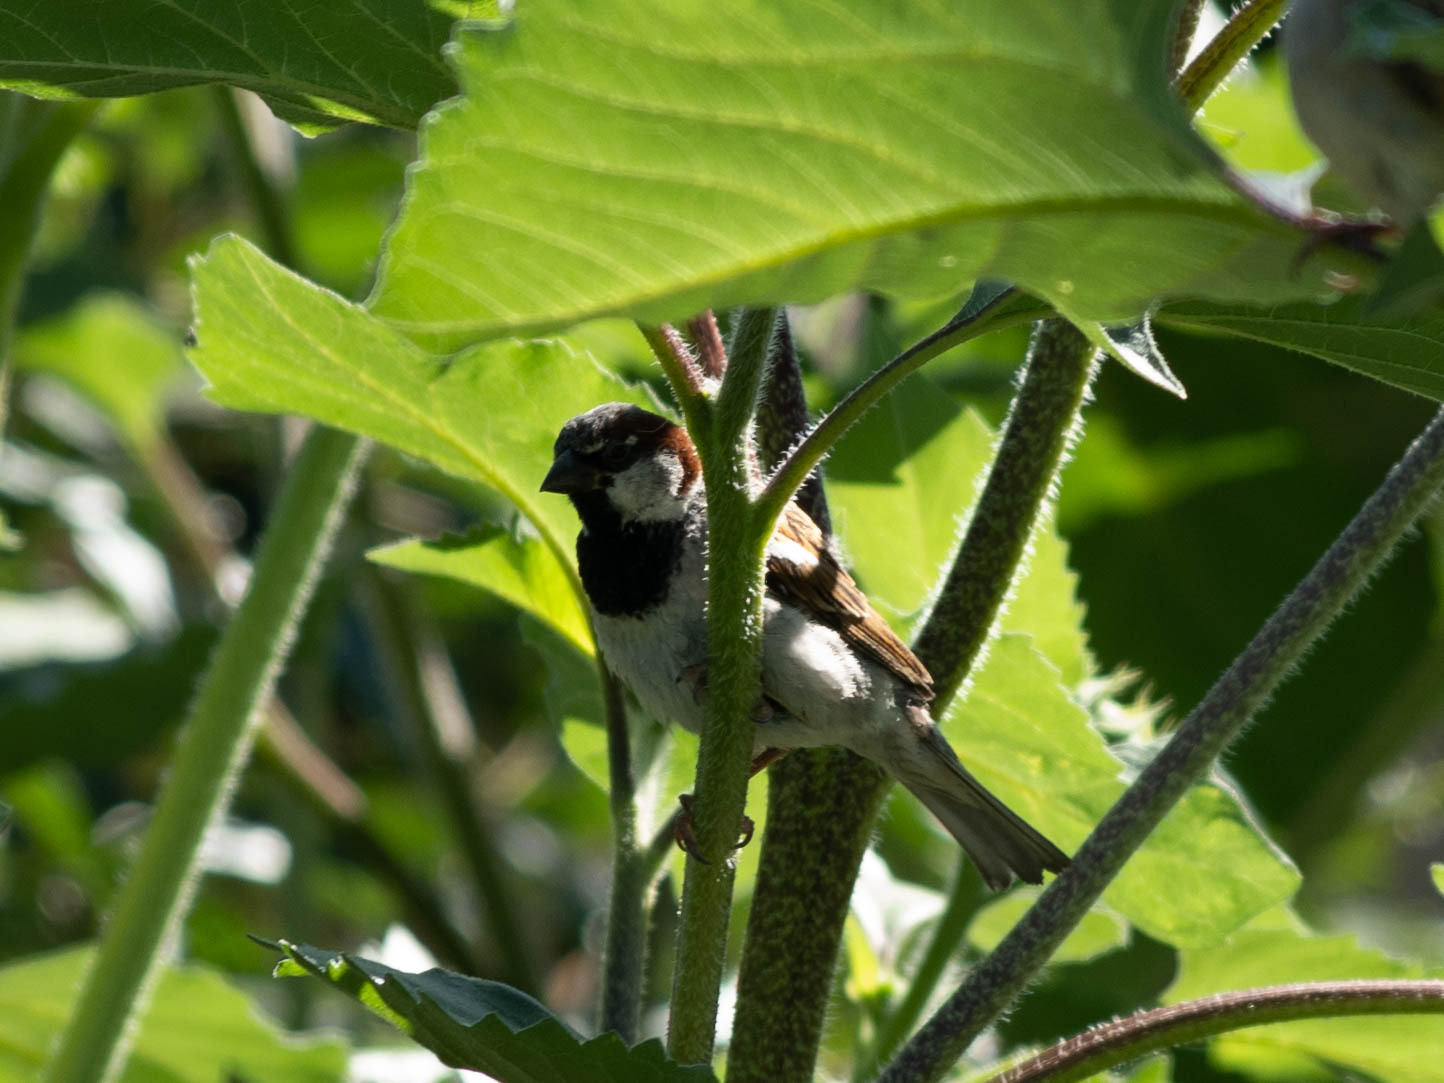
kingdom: Animalia
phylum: Chordata
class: Aves
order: Passeriformes
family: Passeridae
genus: Passer
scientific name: Passer domesticus
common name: House sparrow
